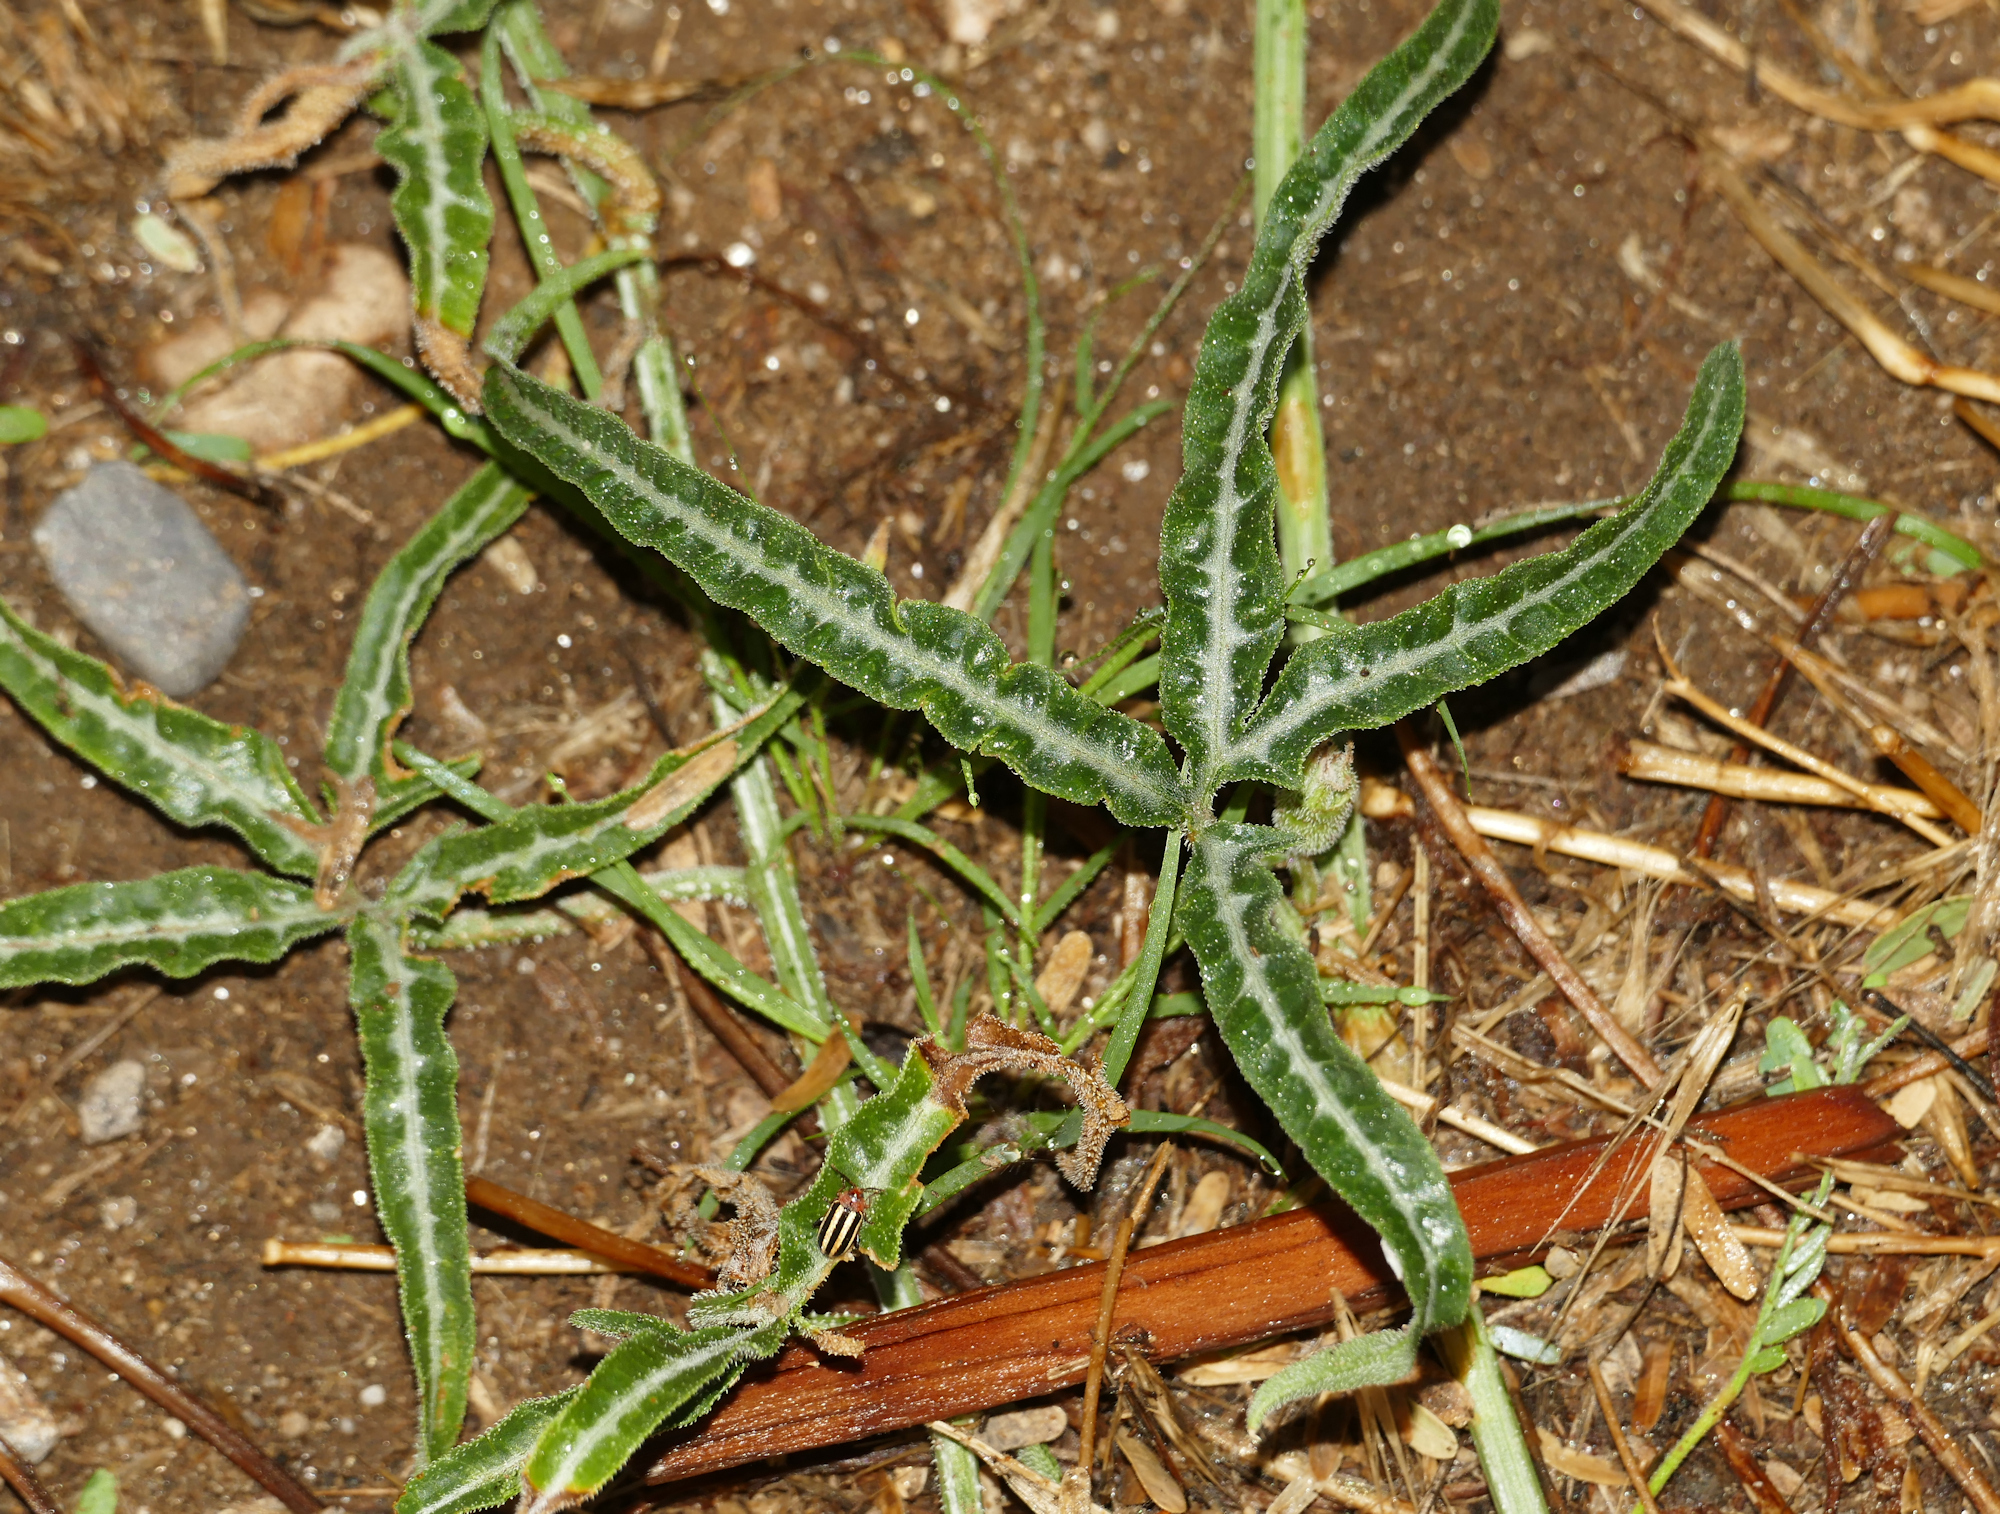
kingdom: Plantae
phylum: Tracheophyta
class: Magnoliopsida
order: Cucurbitales
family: Cucurbitaceae
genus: Cucurbita
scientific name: Cucurbita digitata
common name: Finger-leaf gourd
